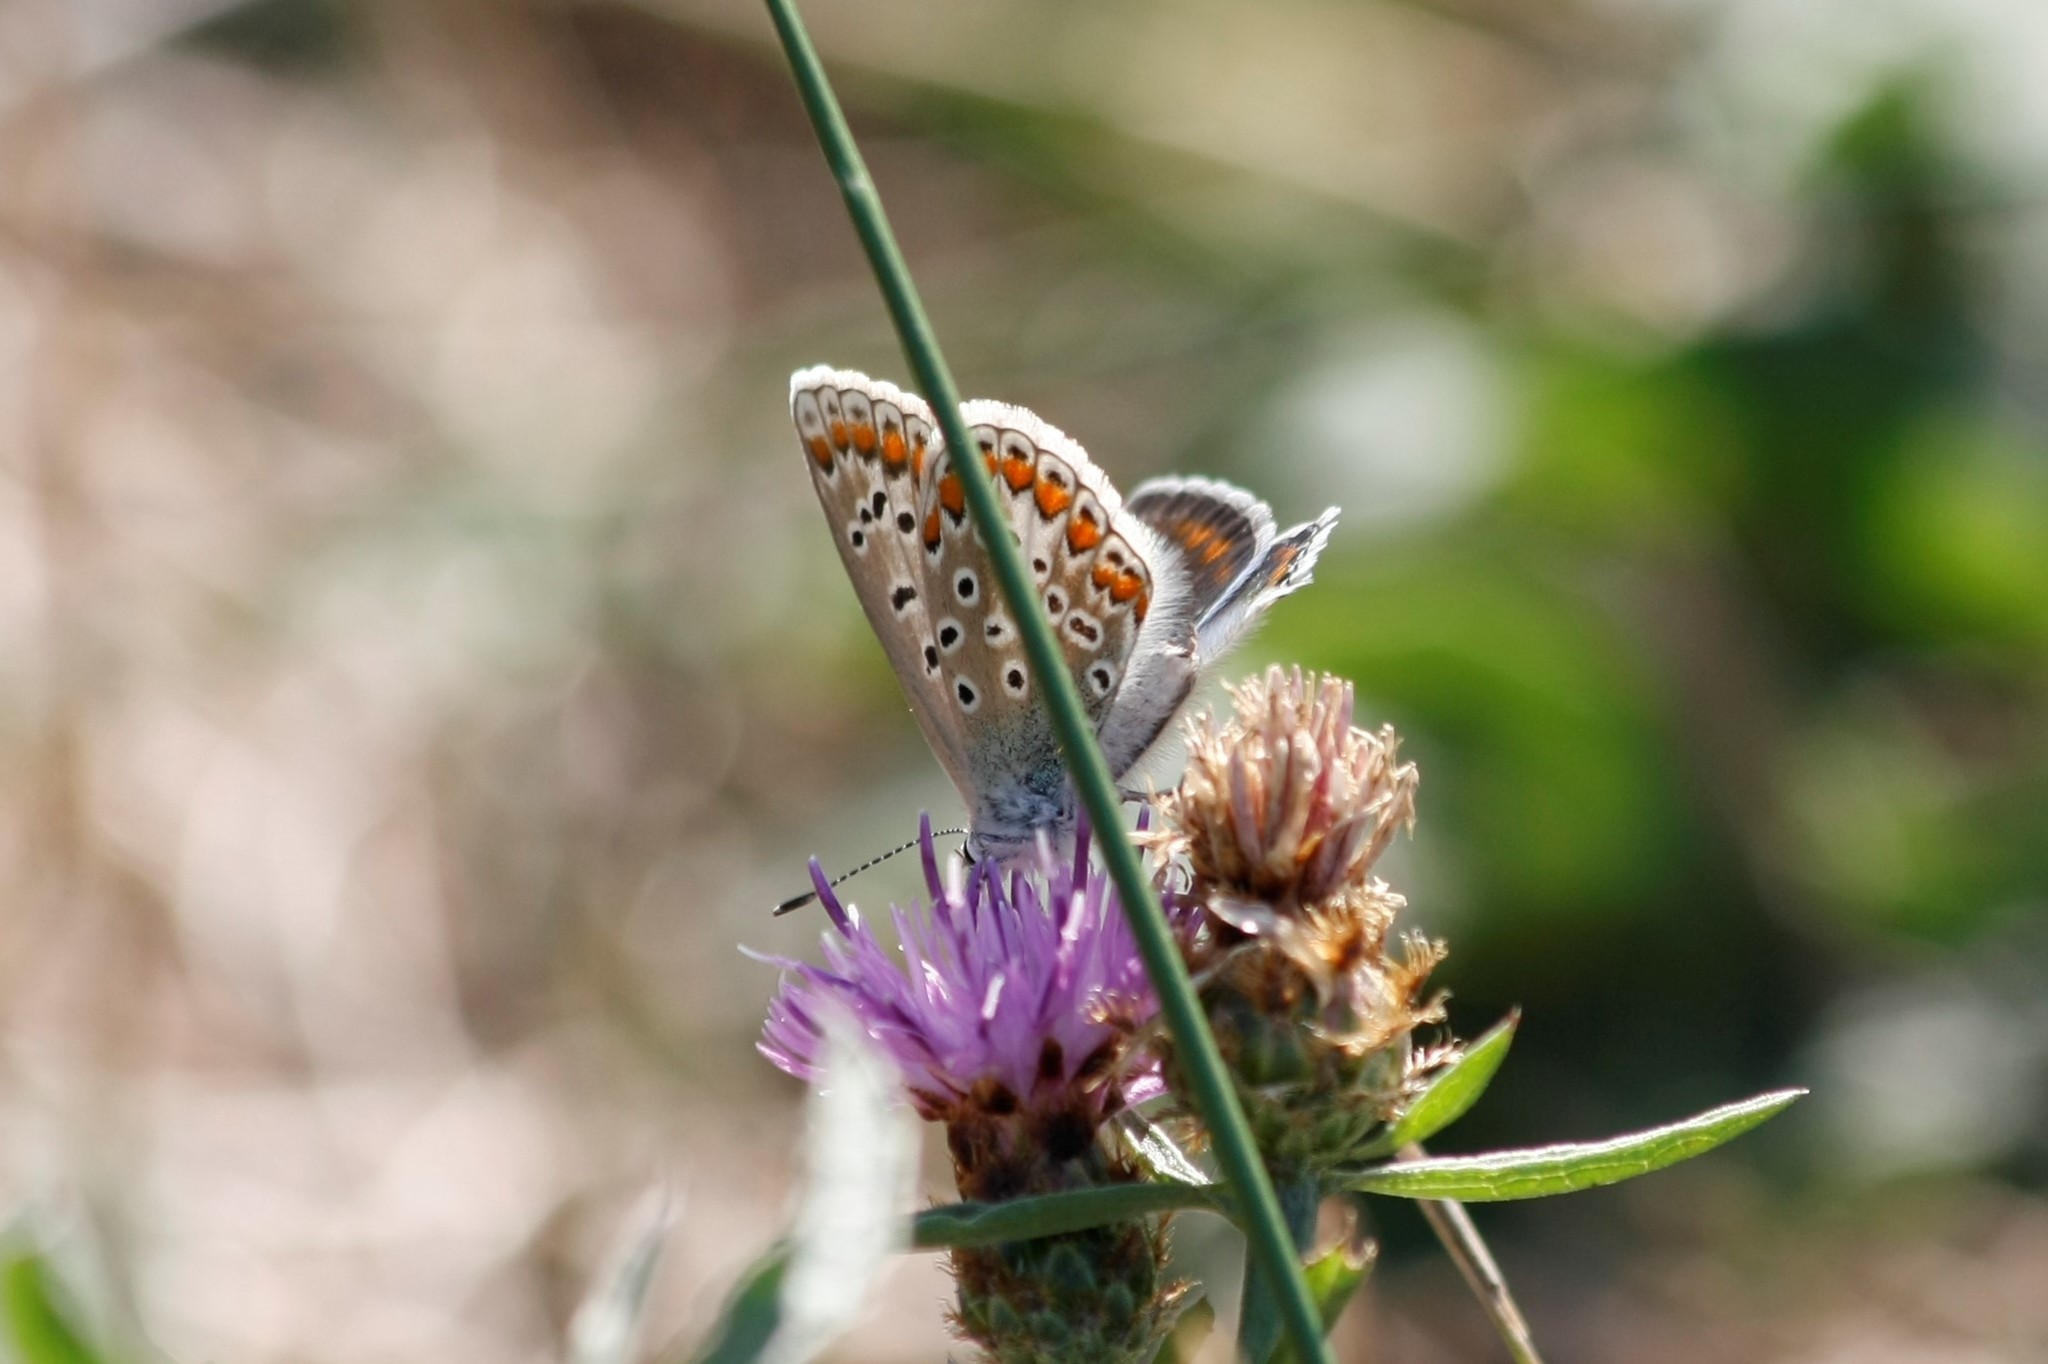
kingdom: Animalia
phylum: Arthropoda
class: Insecta
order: Lepidoptera
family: Lycaenidae
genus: Polyommatus
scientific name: Polyommatus icarus
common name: Common blue
